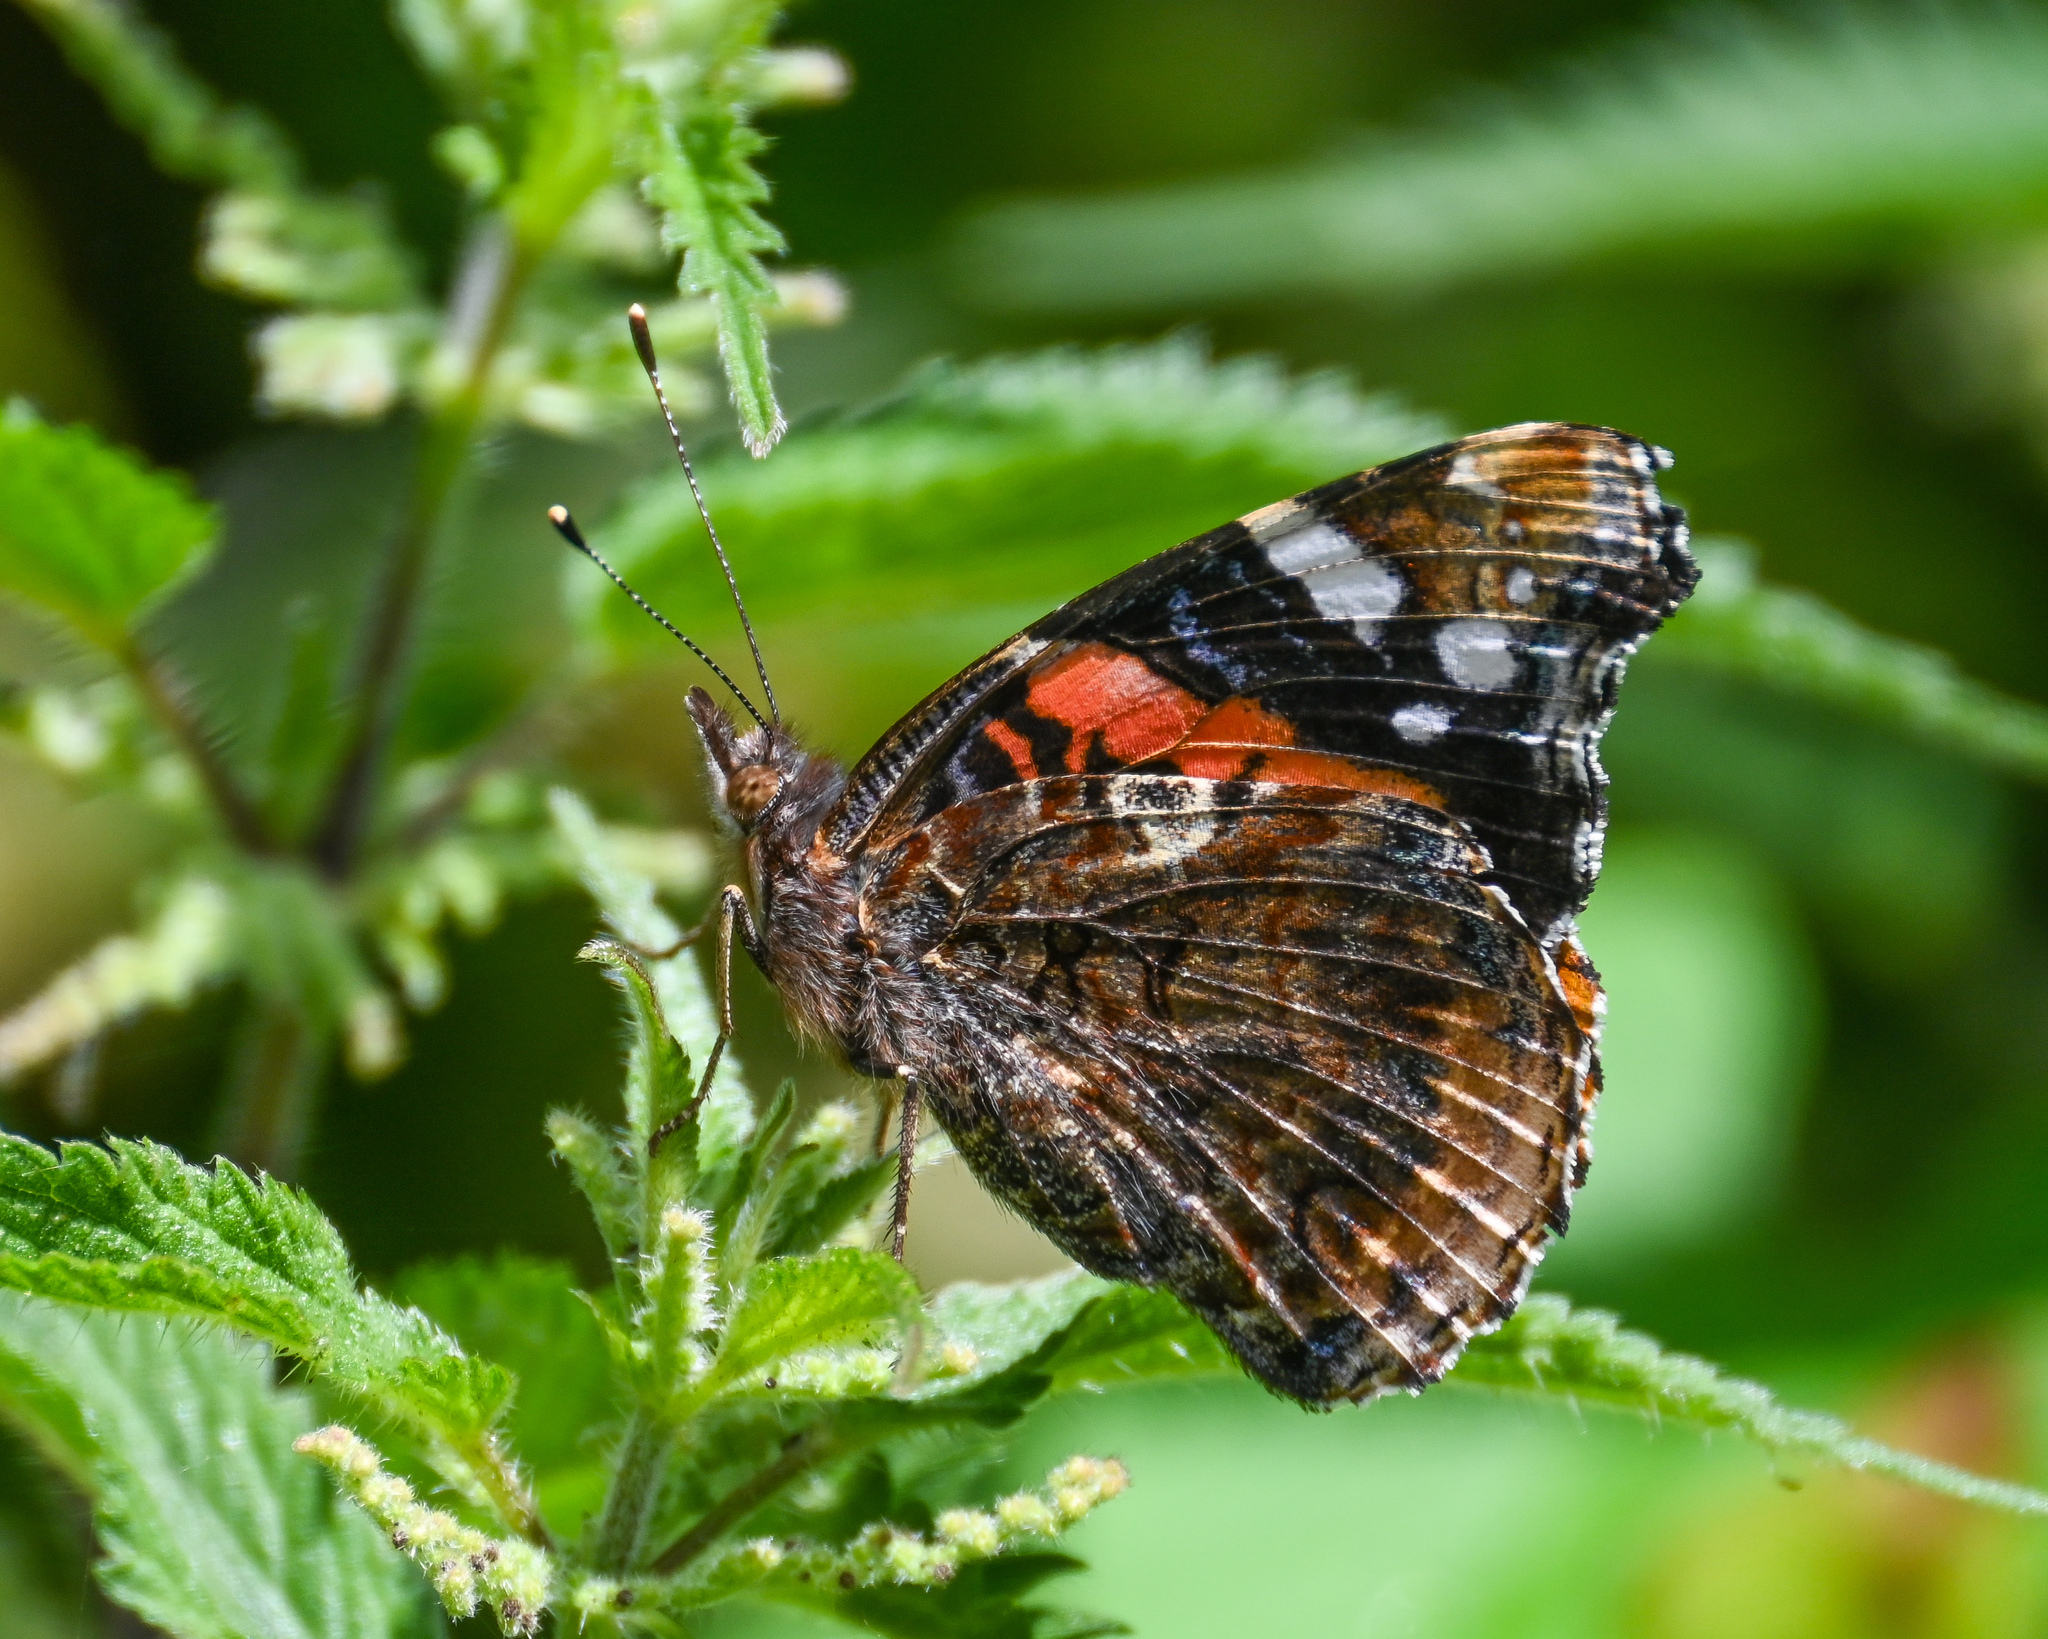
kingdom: Animalia
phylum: Arthropoda
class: Insecta
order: Lepidoptera
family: Nymphalidae
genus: Vanessa
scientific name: Vanessa atalanta
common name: Red admiral
